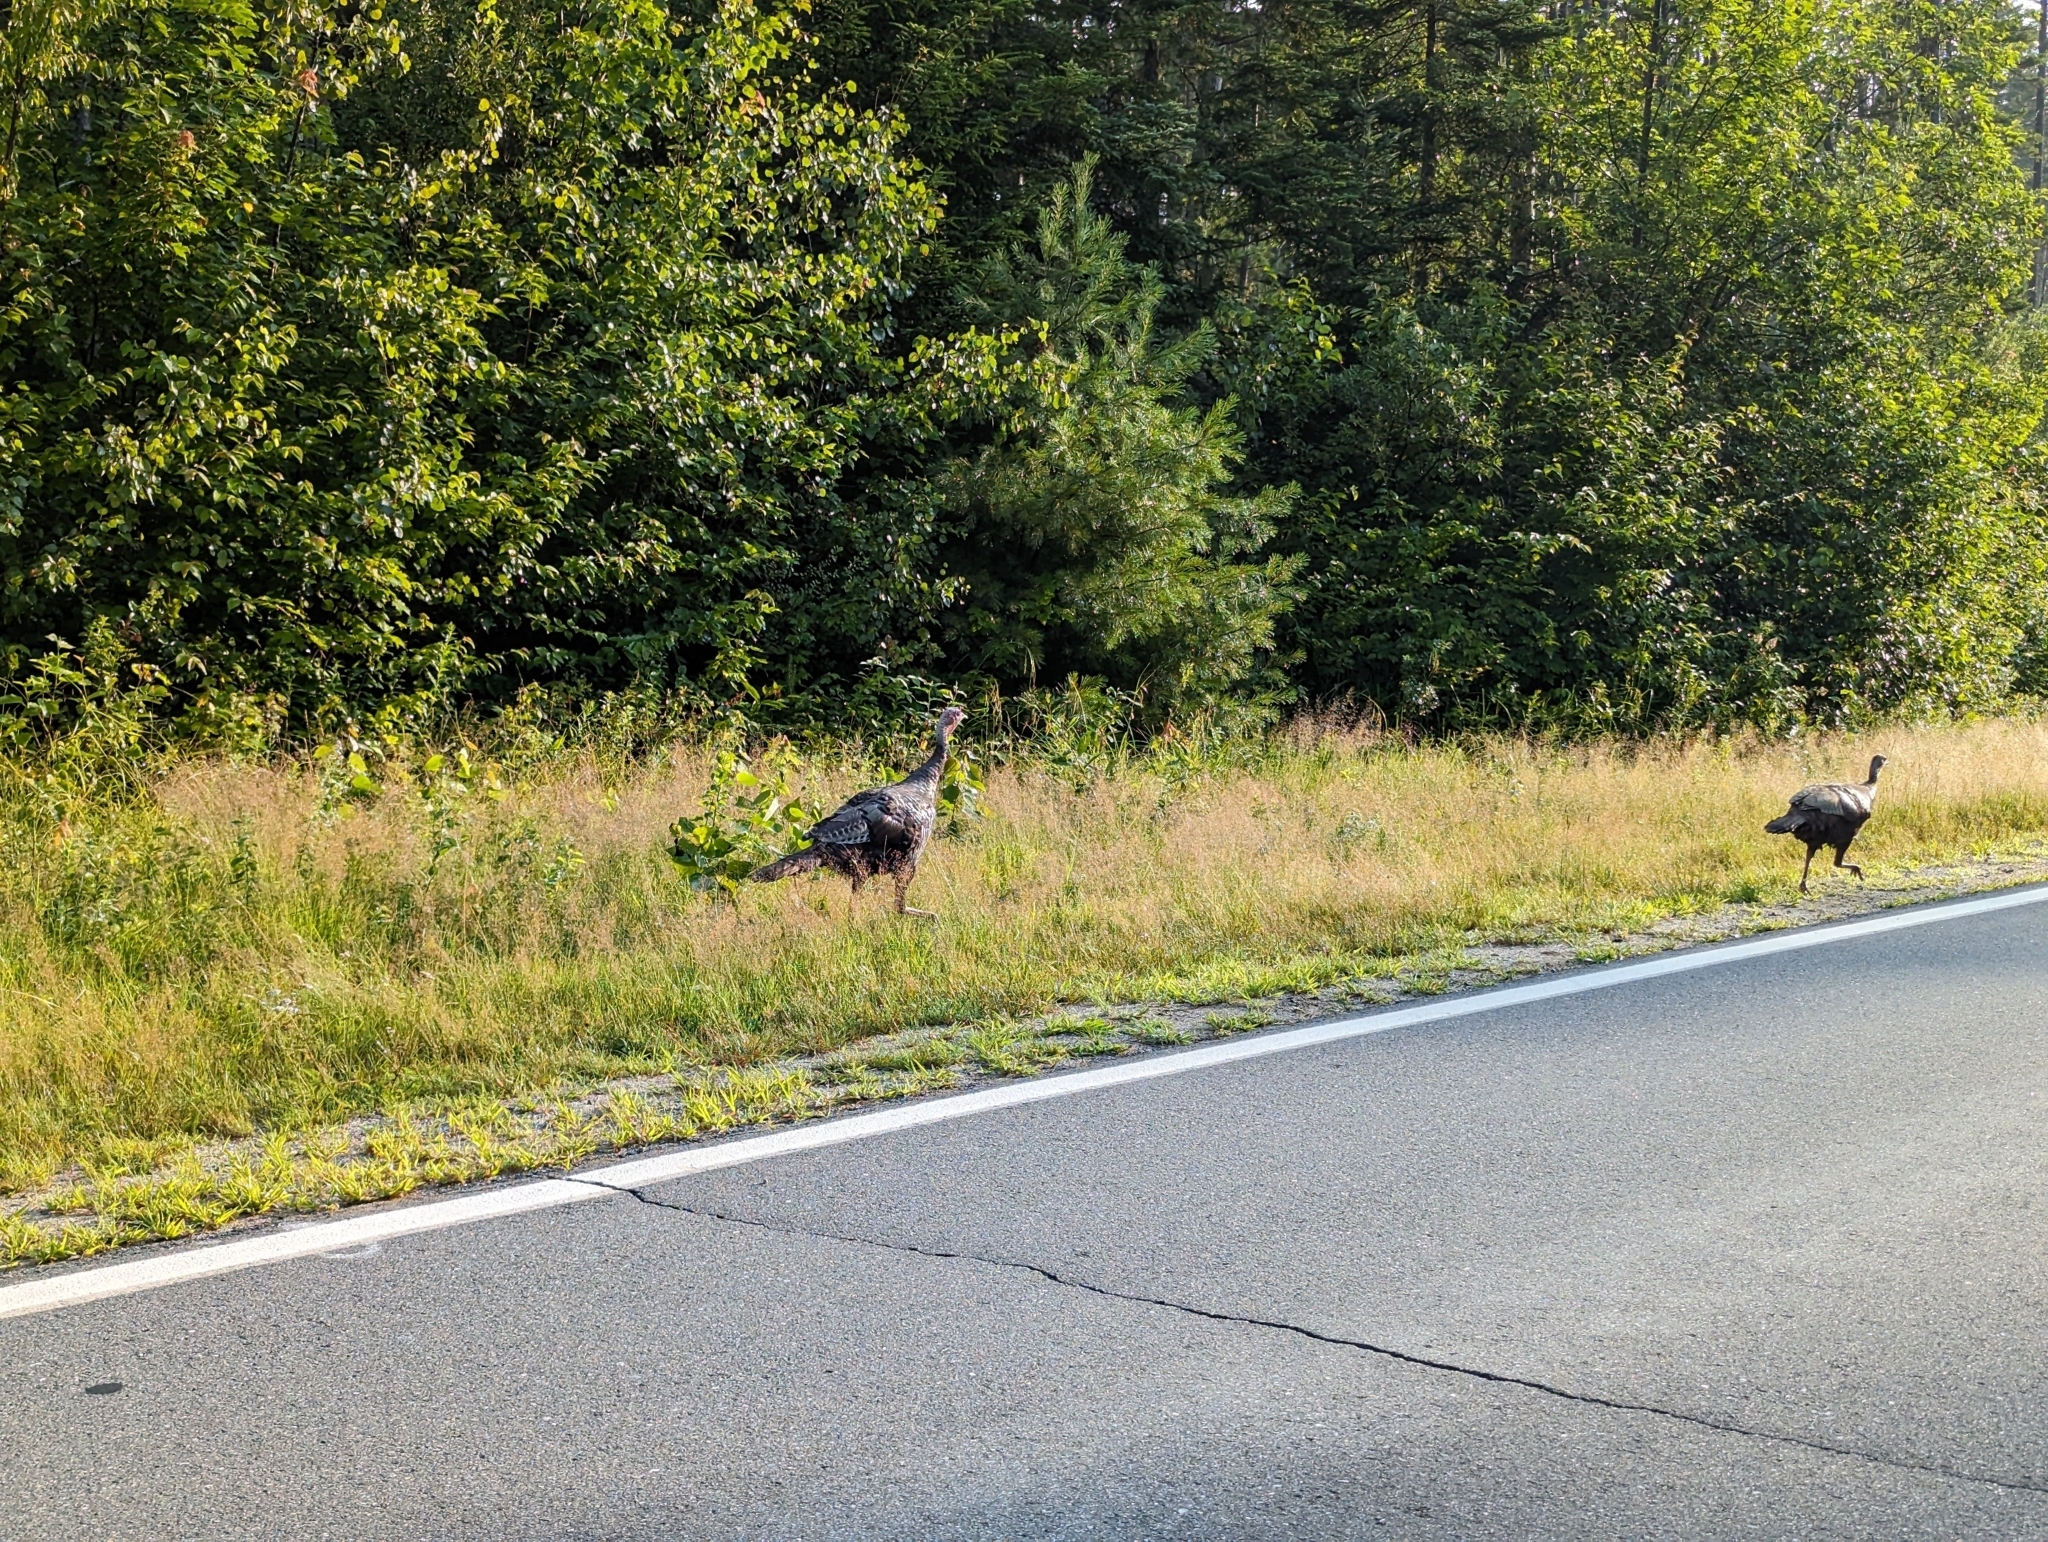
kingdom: Animalia
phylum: Chordata
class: Aves
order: Galliformes
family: Phasianidae
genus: Meleagris
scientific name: Meleagris gallopavo
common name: Wild turkey
